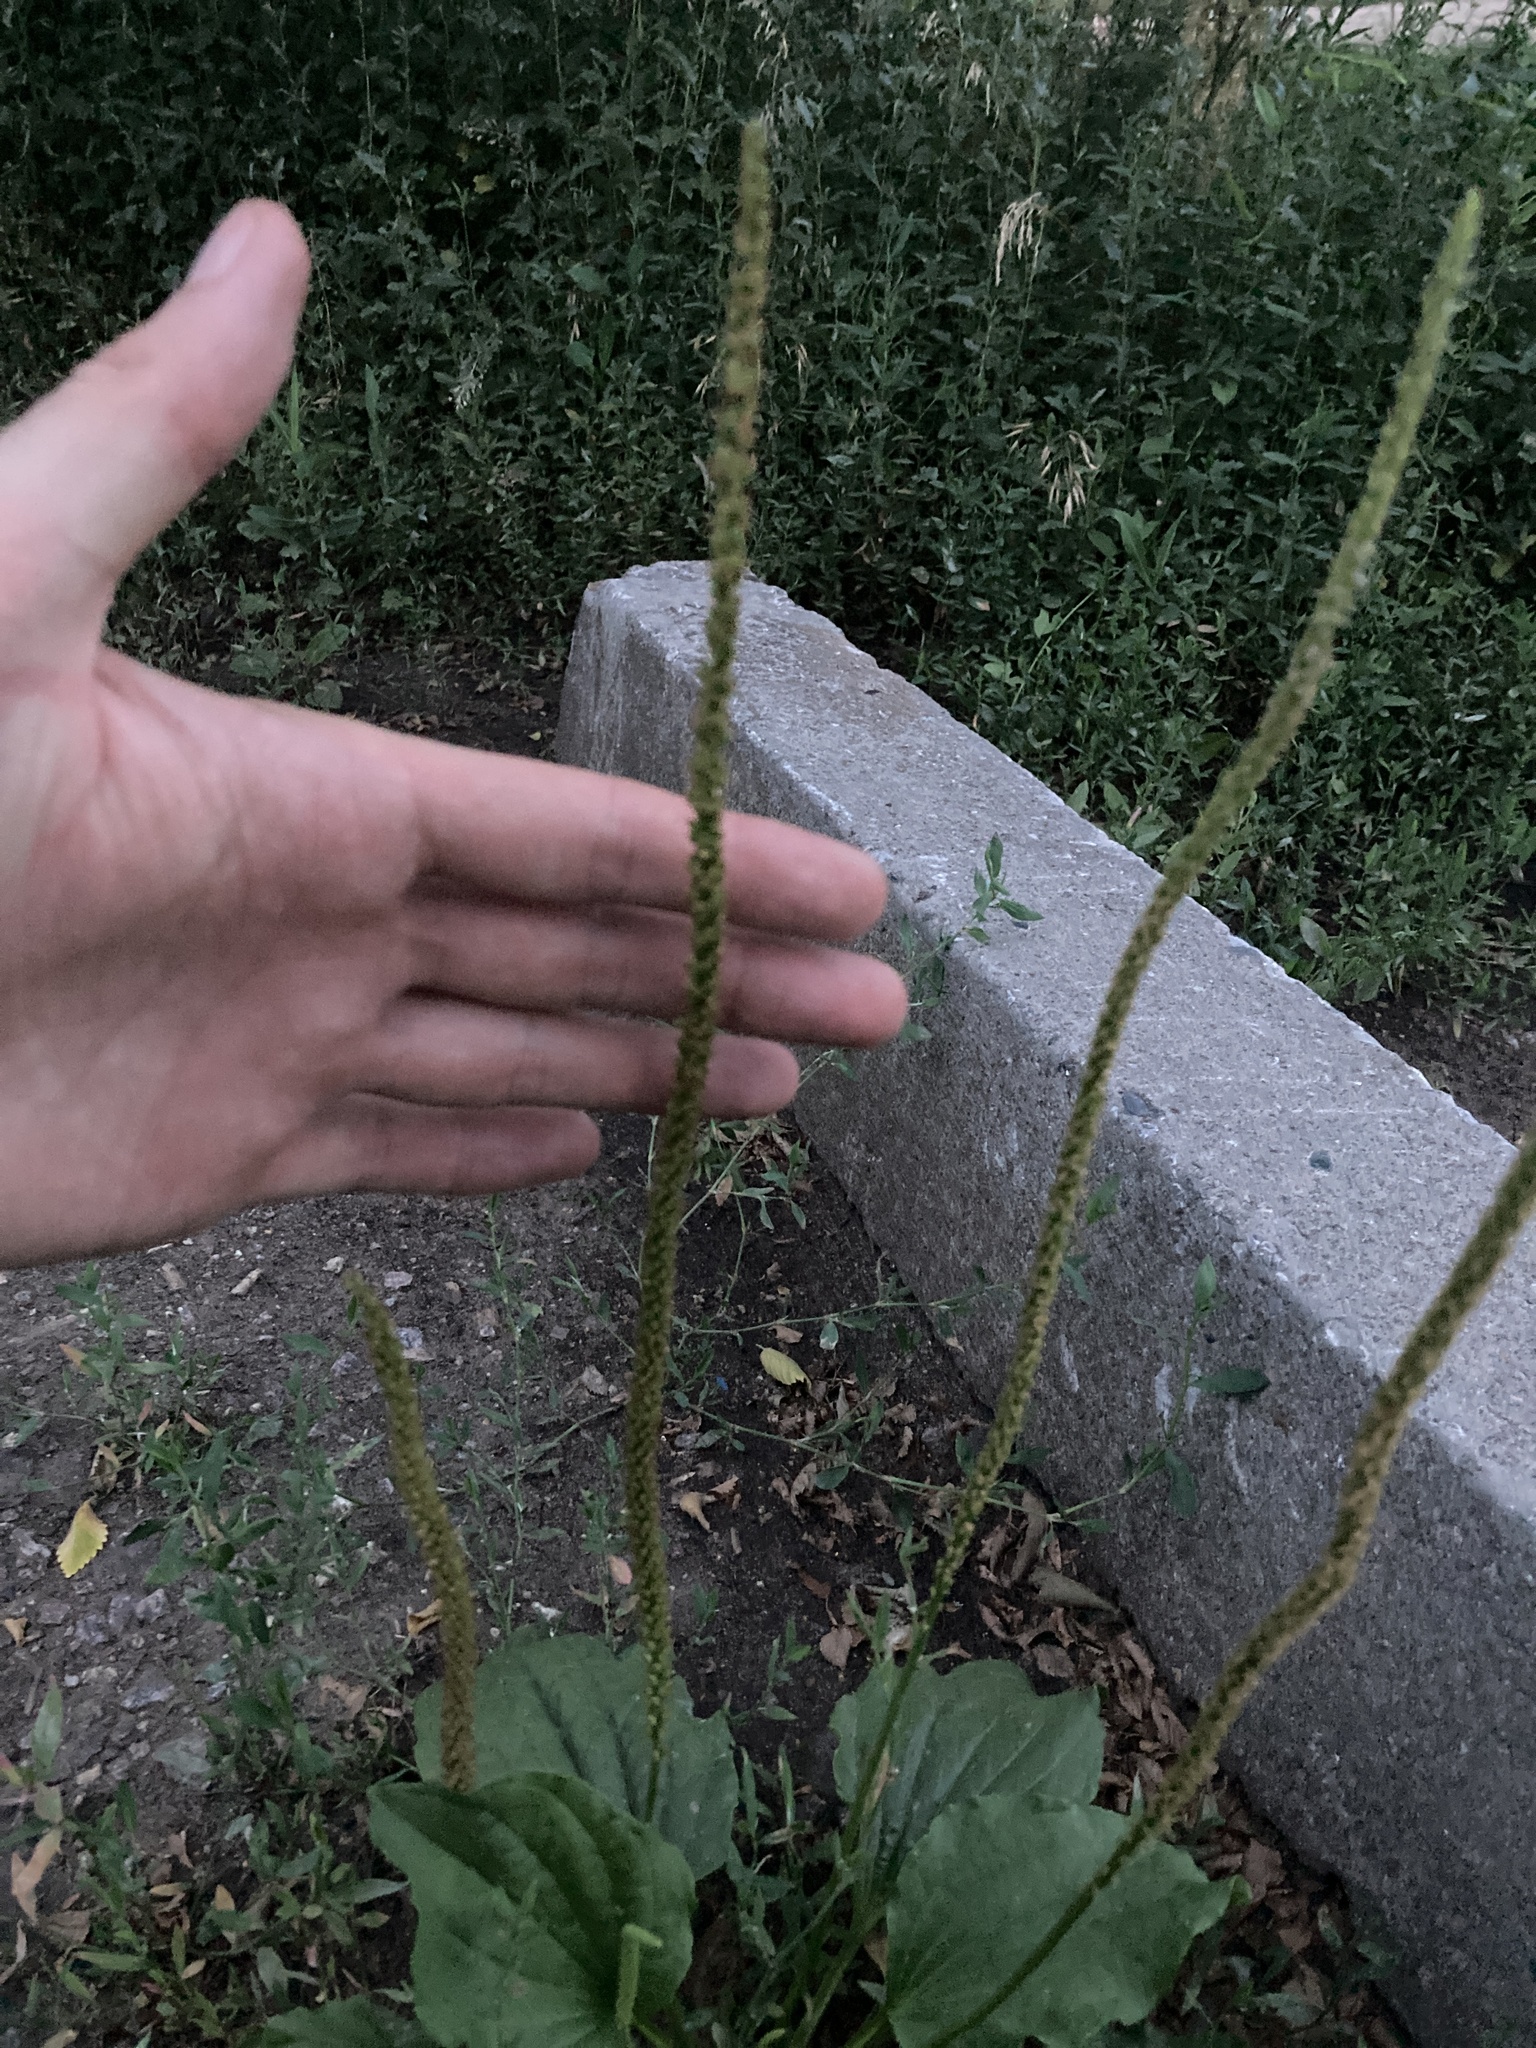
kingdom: Plantae
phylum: Tracheophyta
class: Magnoliopsida
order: Lamiales
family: Plantaginaceae
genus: Plantago
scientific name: Plantago major
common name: Common plantain
